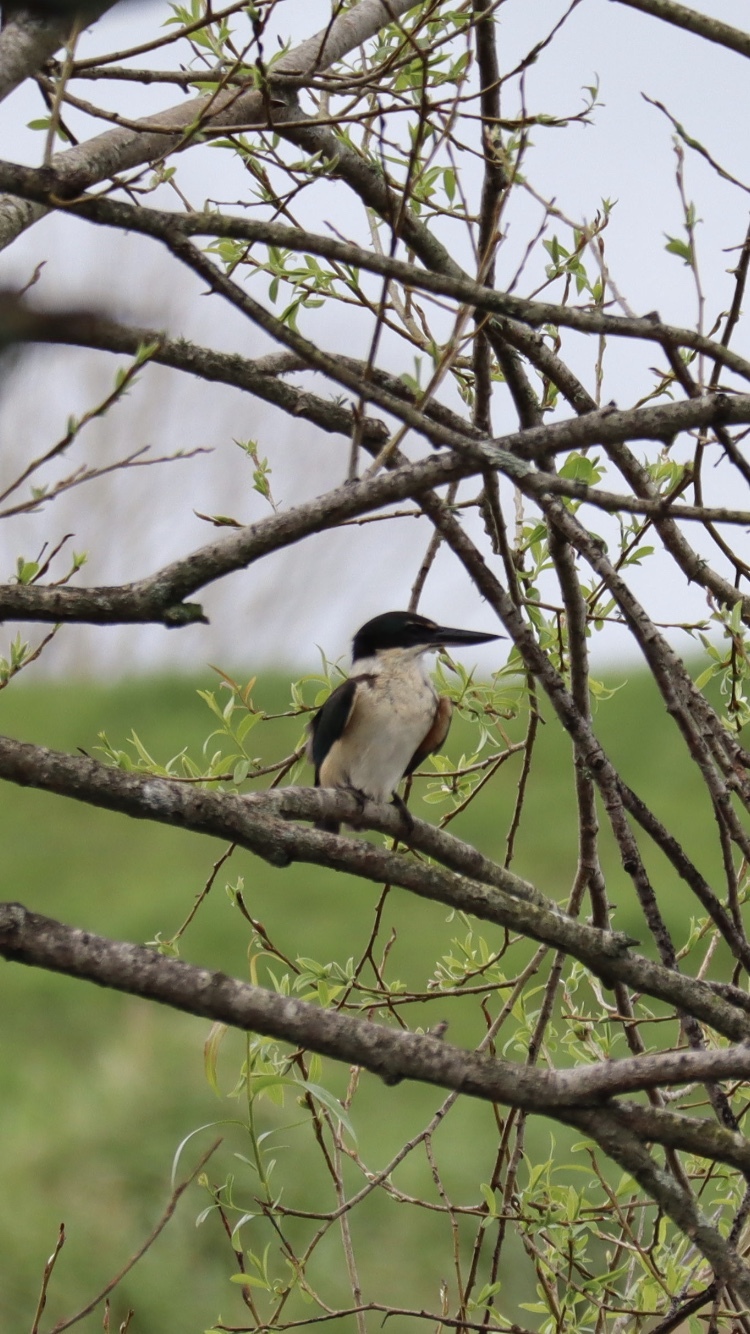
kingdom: Animalia
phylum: Chordata
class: Aves
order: Coraciiformes
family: Alcedinidae
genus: Todiramphus
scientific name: Todiramphus sanctus
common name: Sacred kingfisher
